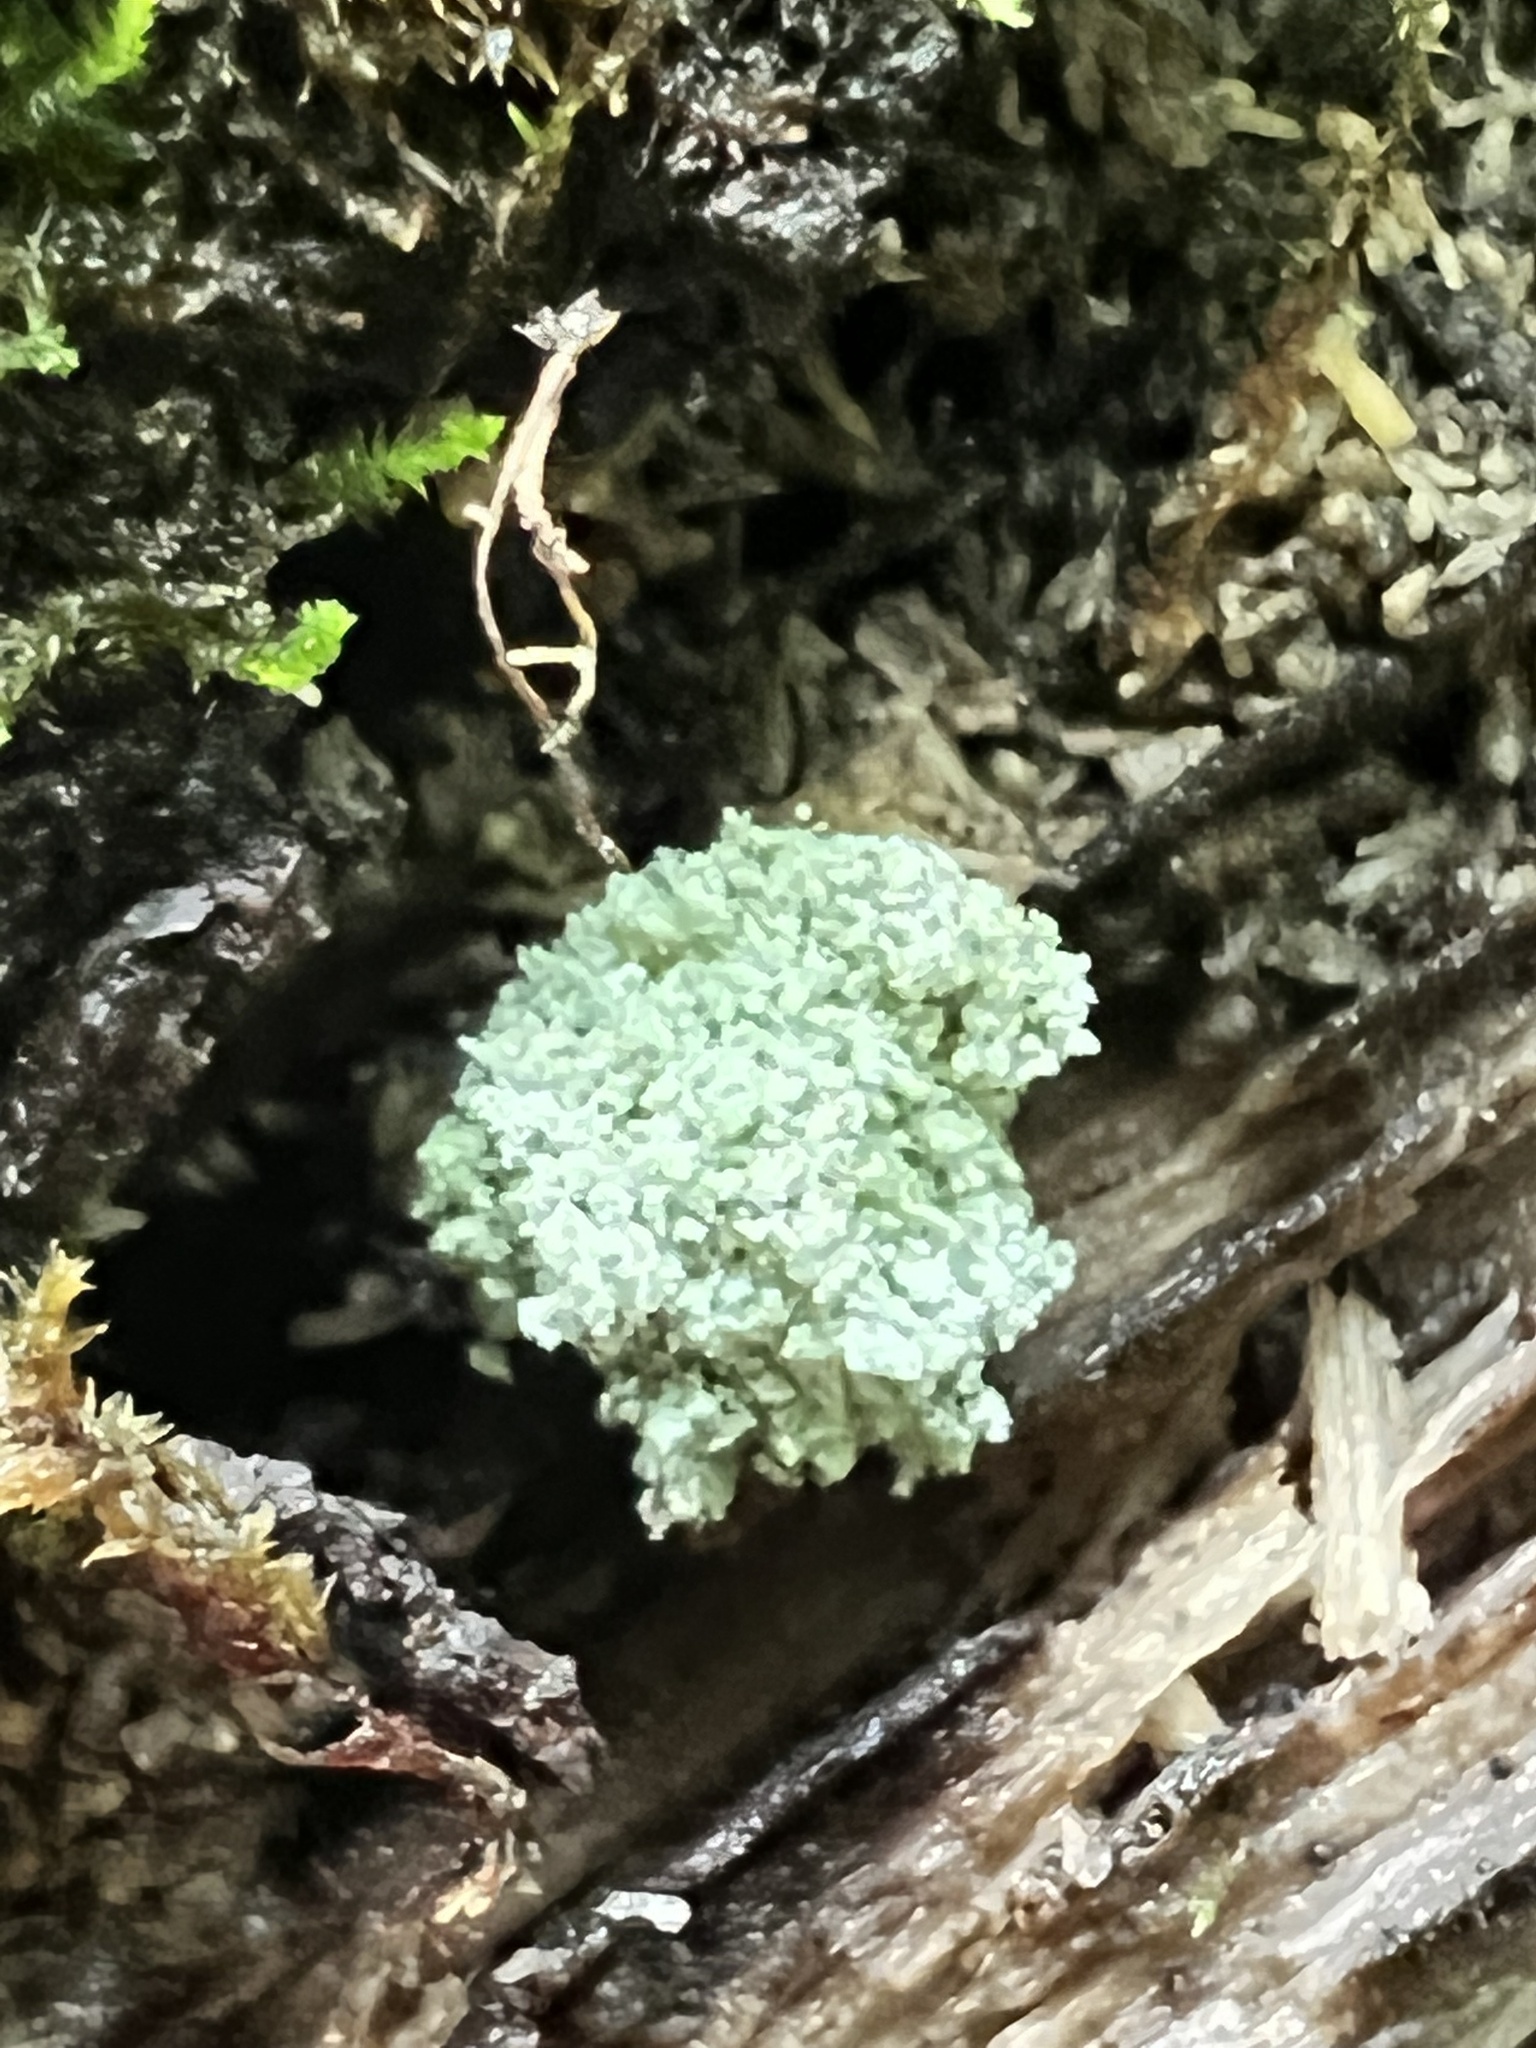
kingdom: Animalia
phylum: Arthropoda
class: Insecta
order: Neuroptera
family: Chrysopidae
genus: Leucochrysa
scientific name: Leucochrysa pavida
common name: Lichen-carrying green lacewing
